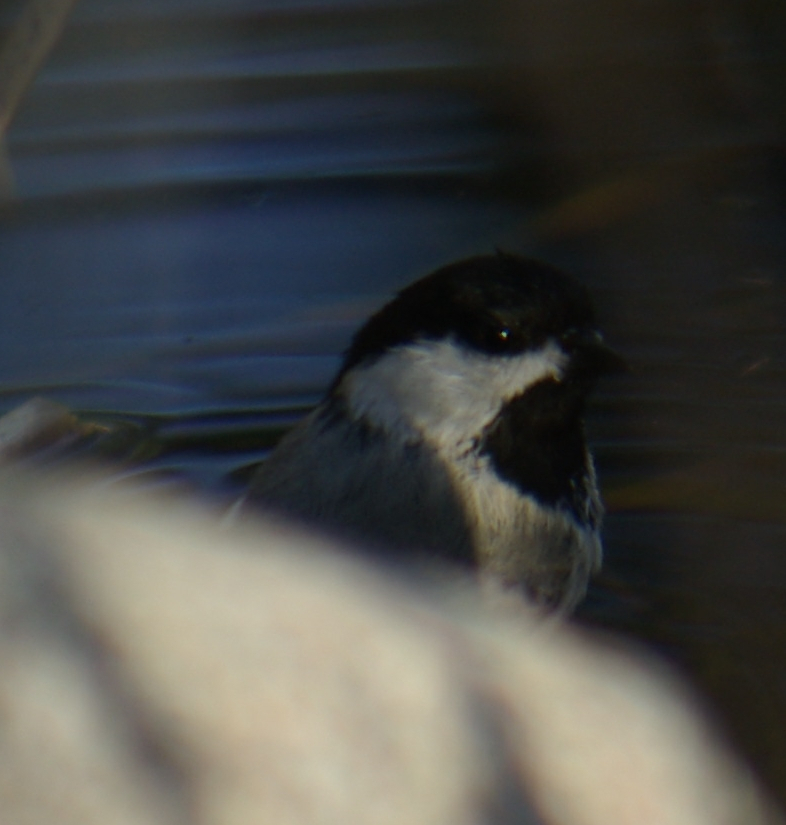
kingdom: Animalia
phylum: Chordata
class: Aves
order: Passeriformes
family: Paridae
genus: Poecile
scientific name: Poecile atricapillus
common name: Black-capped chickadee
